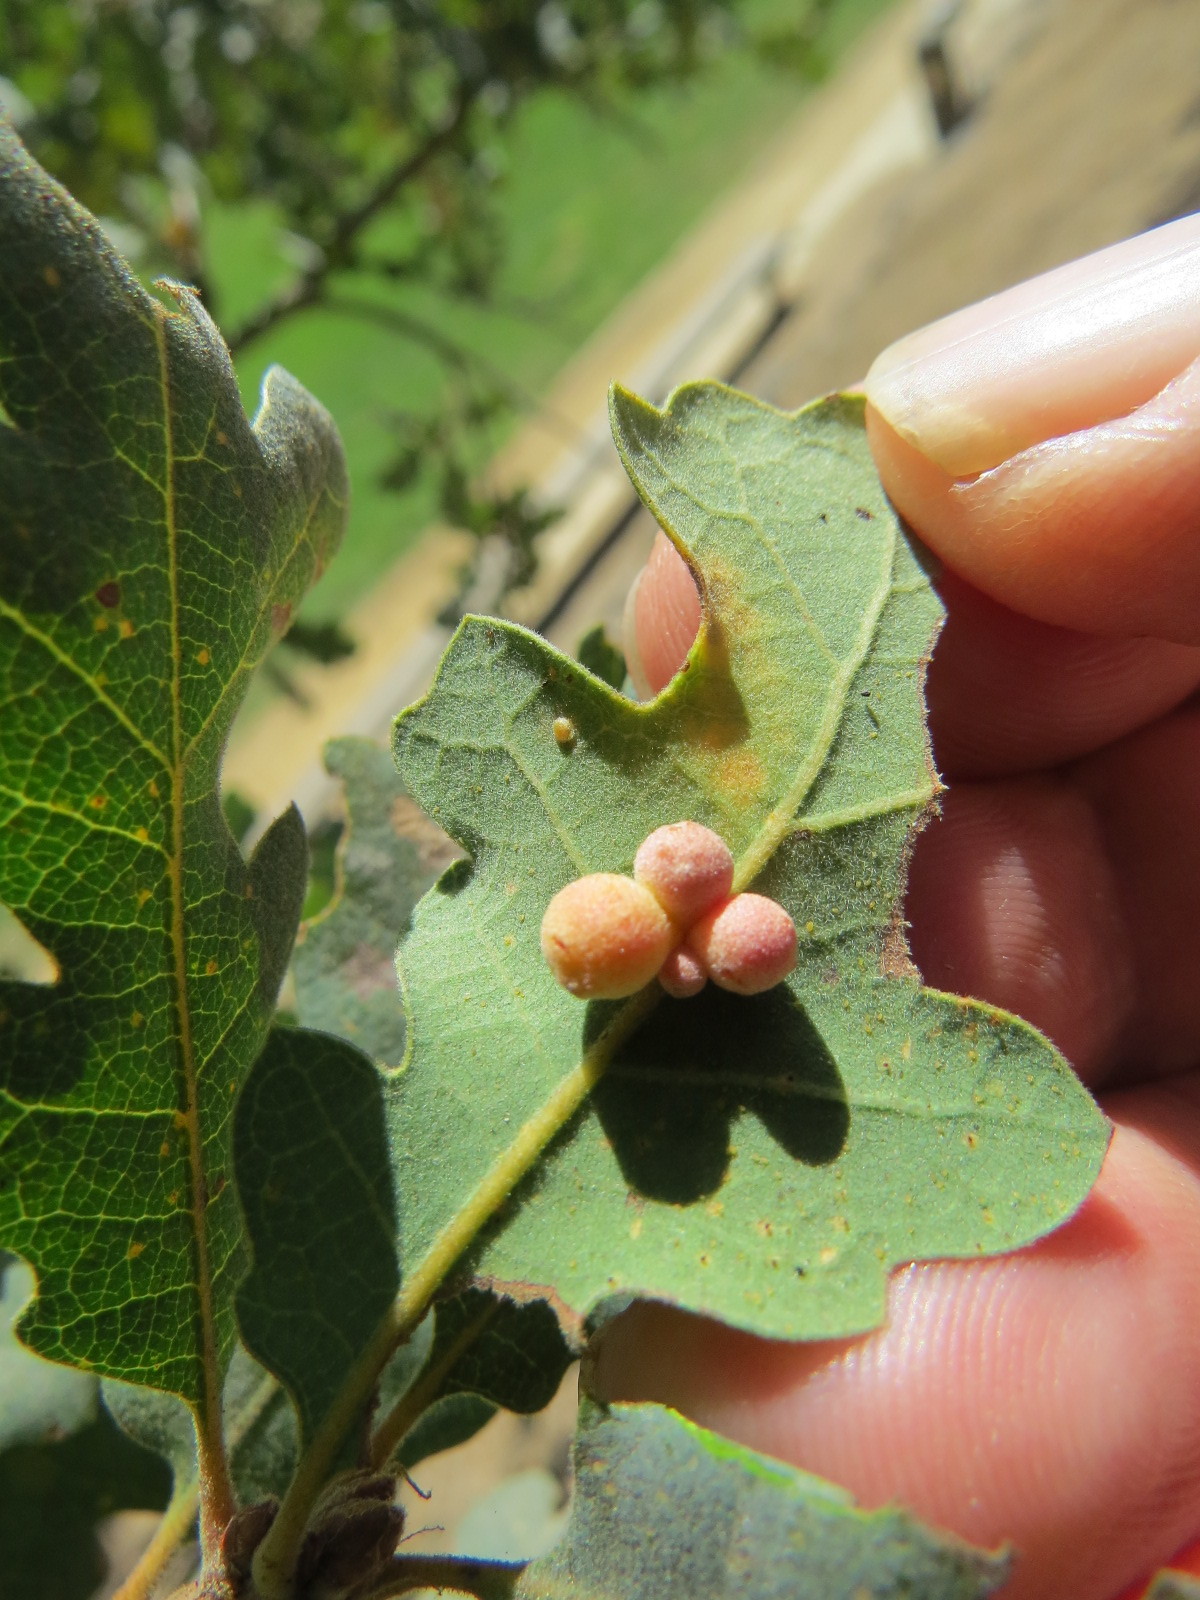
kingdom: Animalia
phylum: Arthropoda
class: Insecta
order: Hymenoptera
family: Cynipidae
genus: Andricus
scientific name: Andricus
